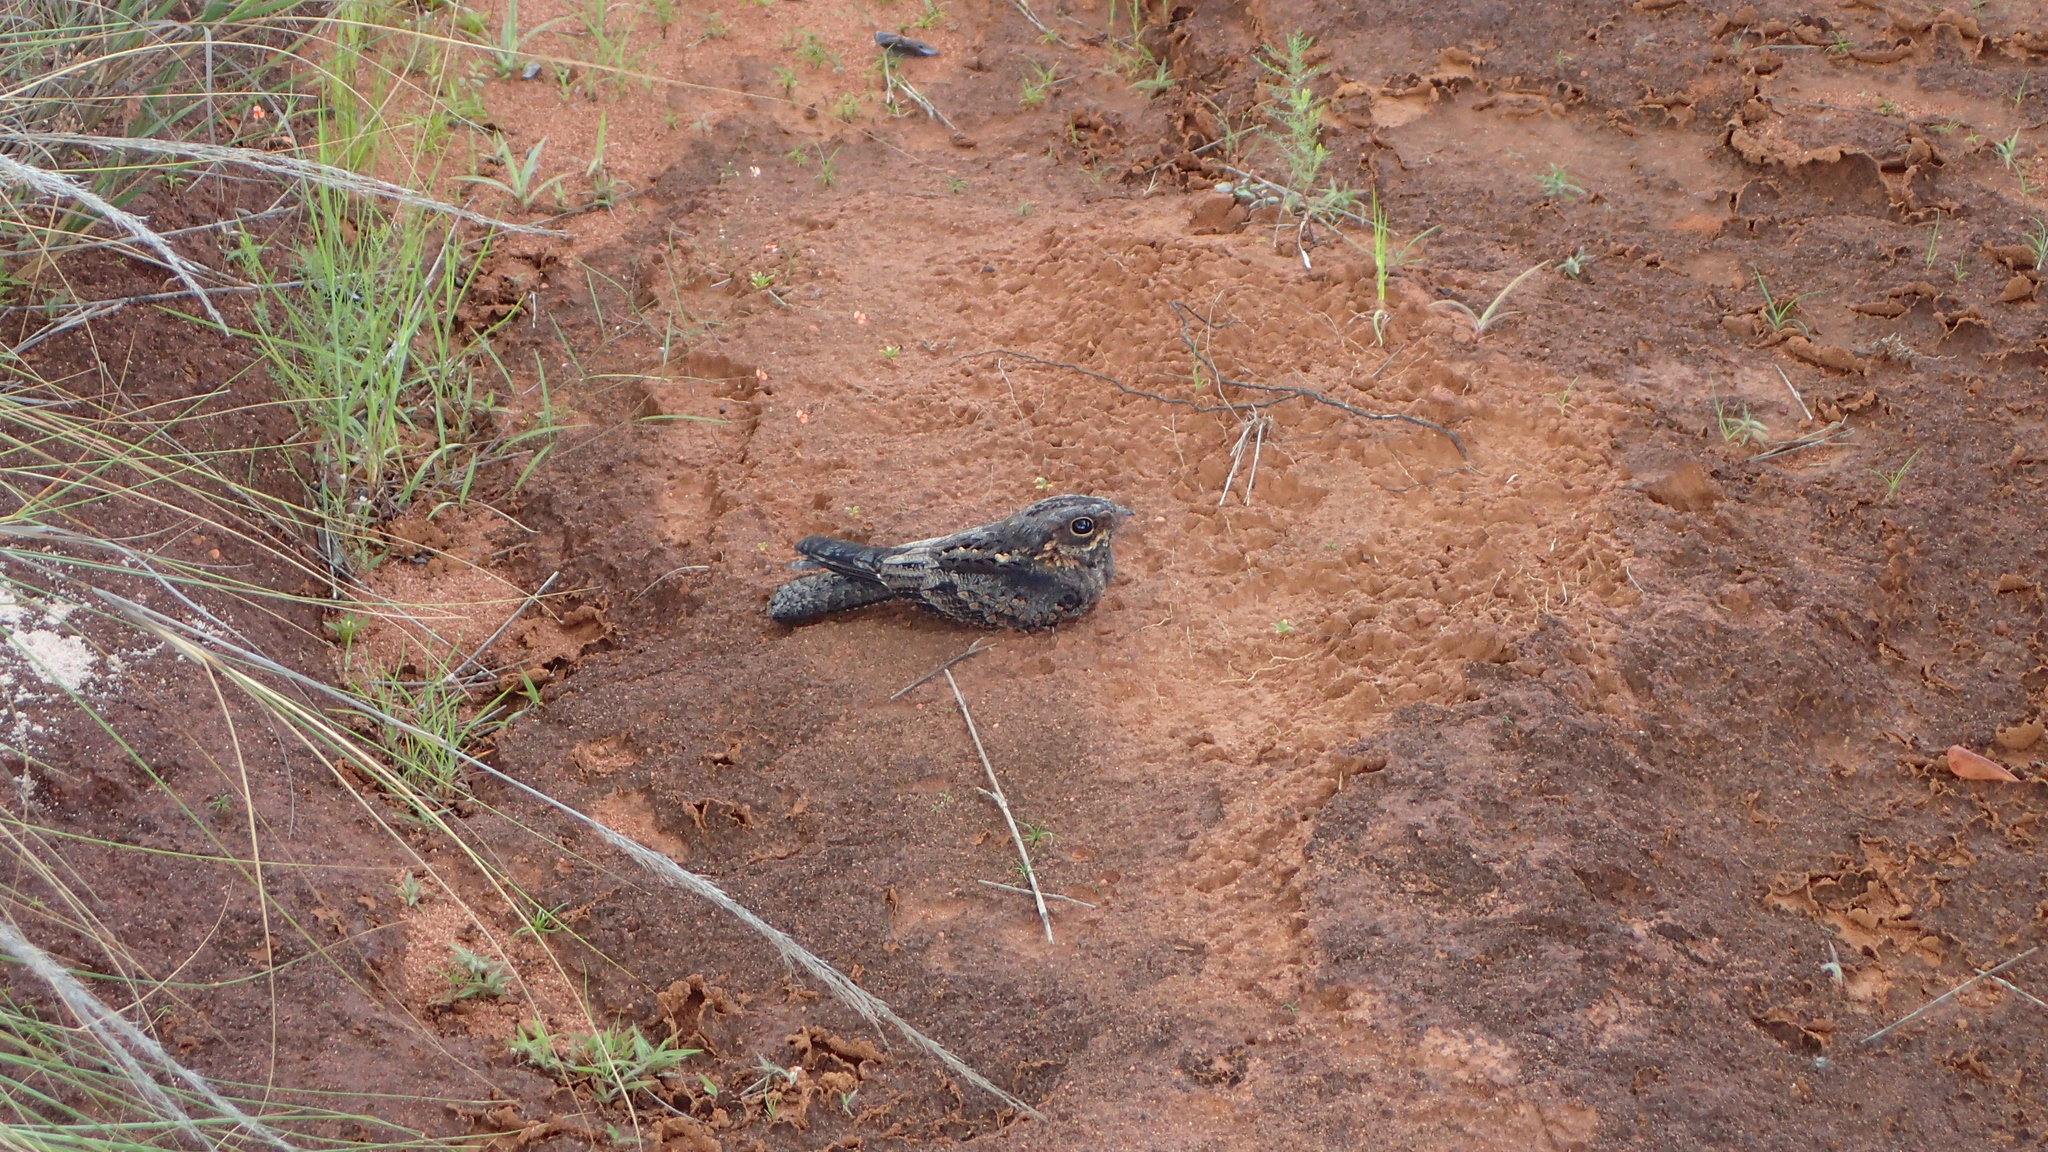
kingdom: Animalia
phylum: Chordata
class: Aves
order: Caprimulgiformes
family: Caprimulgidae
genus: Caprimulgus
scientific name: Caprimulgus madagascariensis
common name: Madagascar nightjar
